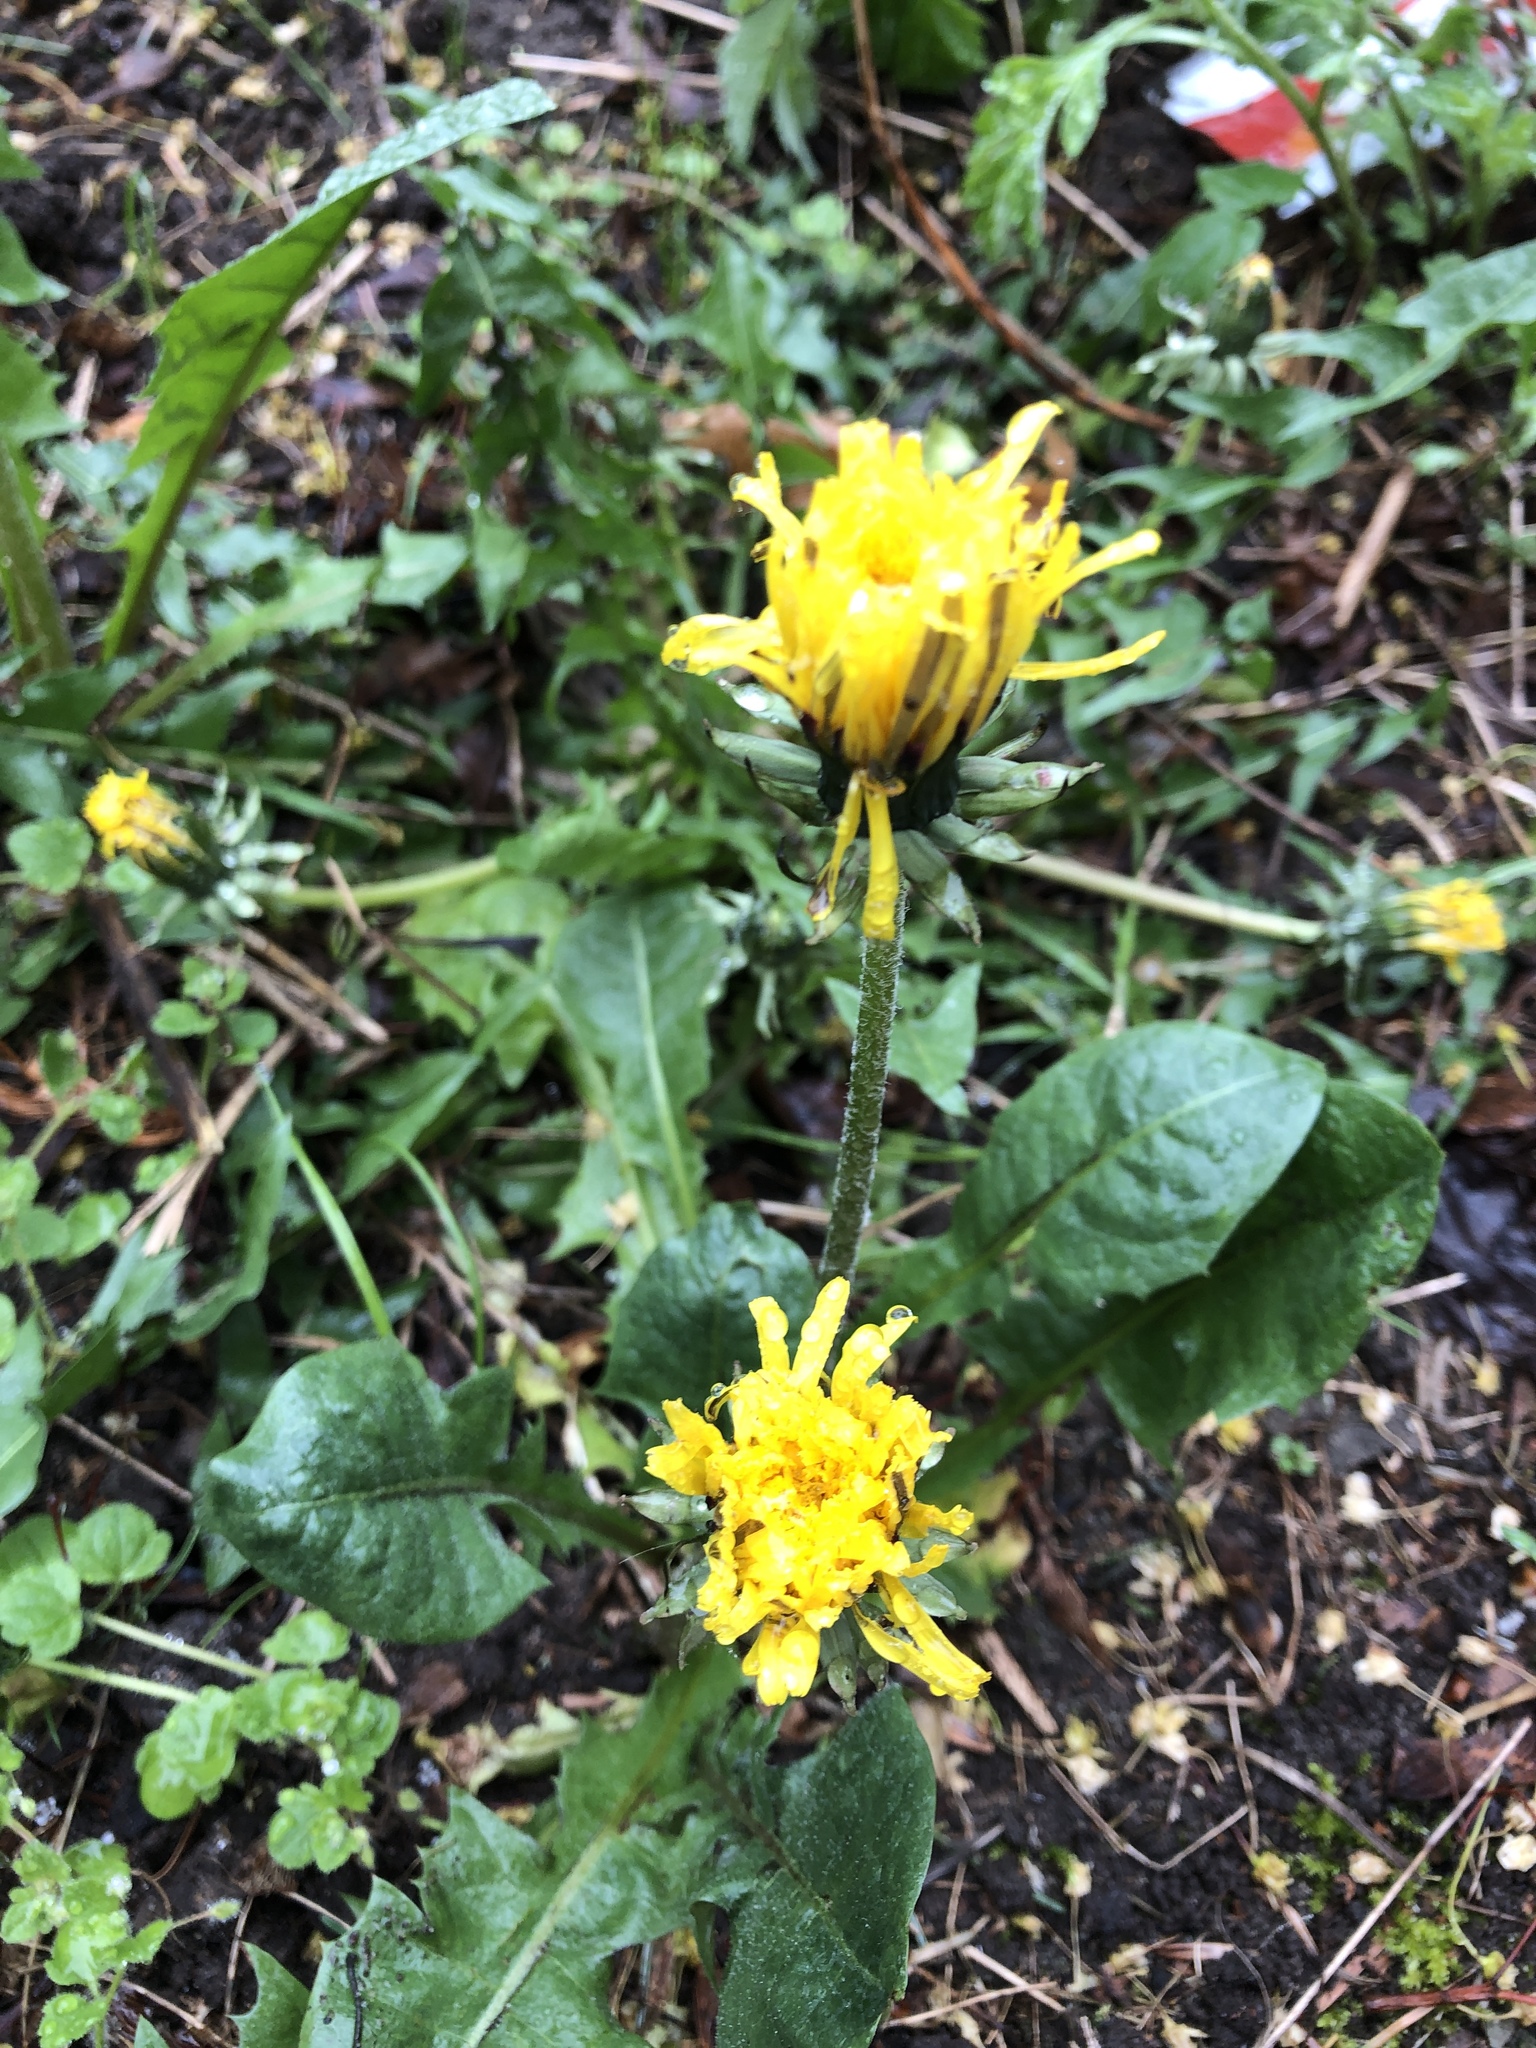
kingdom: Plantae
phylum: Tracheophyta
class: Magnoliopsida
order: Asterales
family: Asteraceae
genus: Taraxacum
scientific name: Taraxacum officinale
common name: Common dandelion
